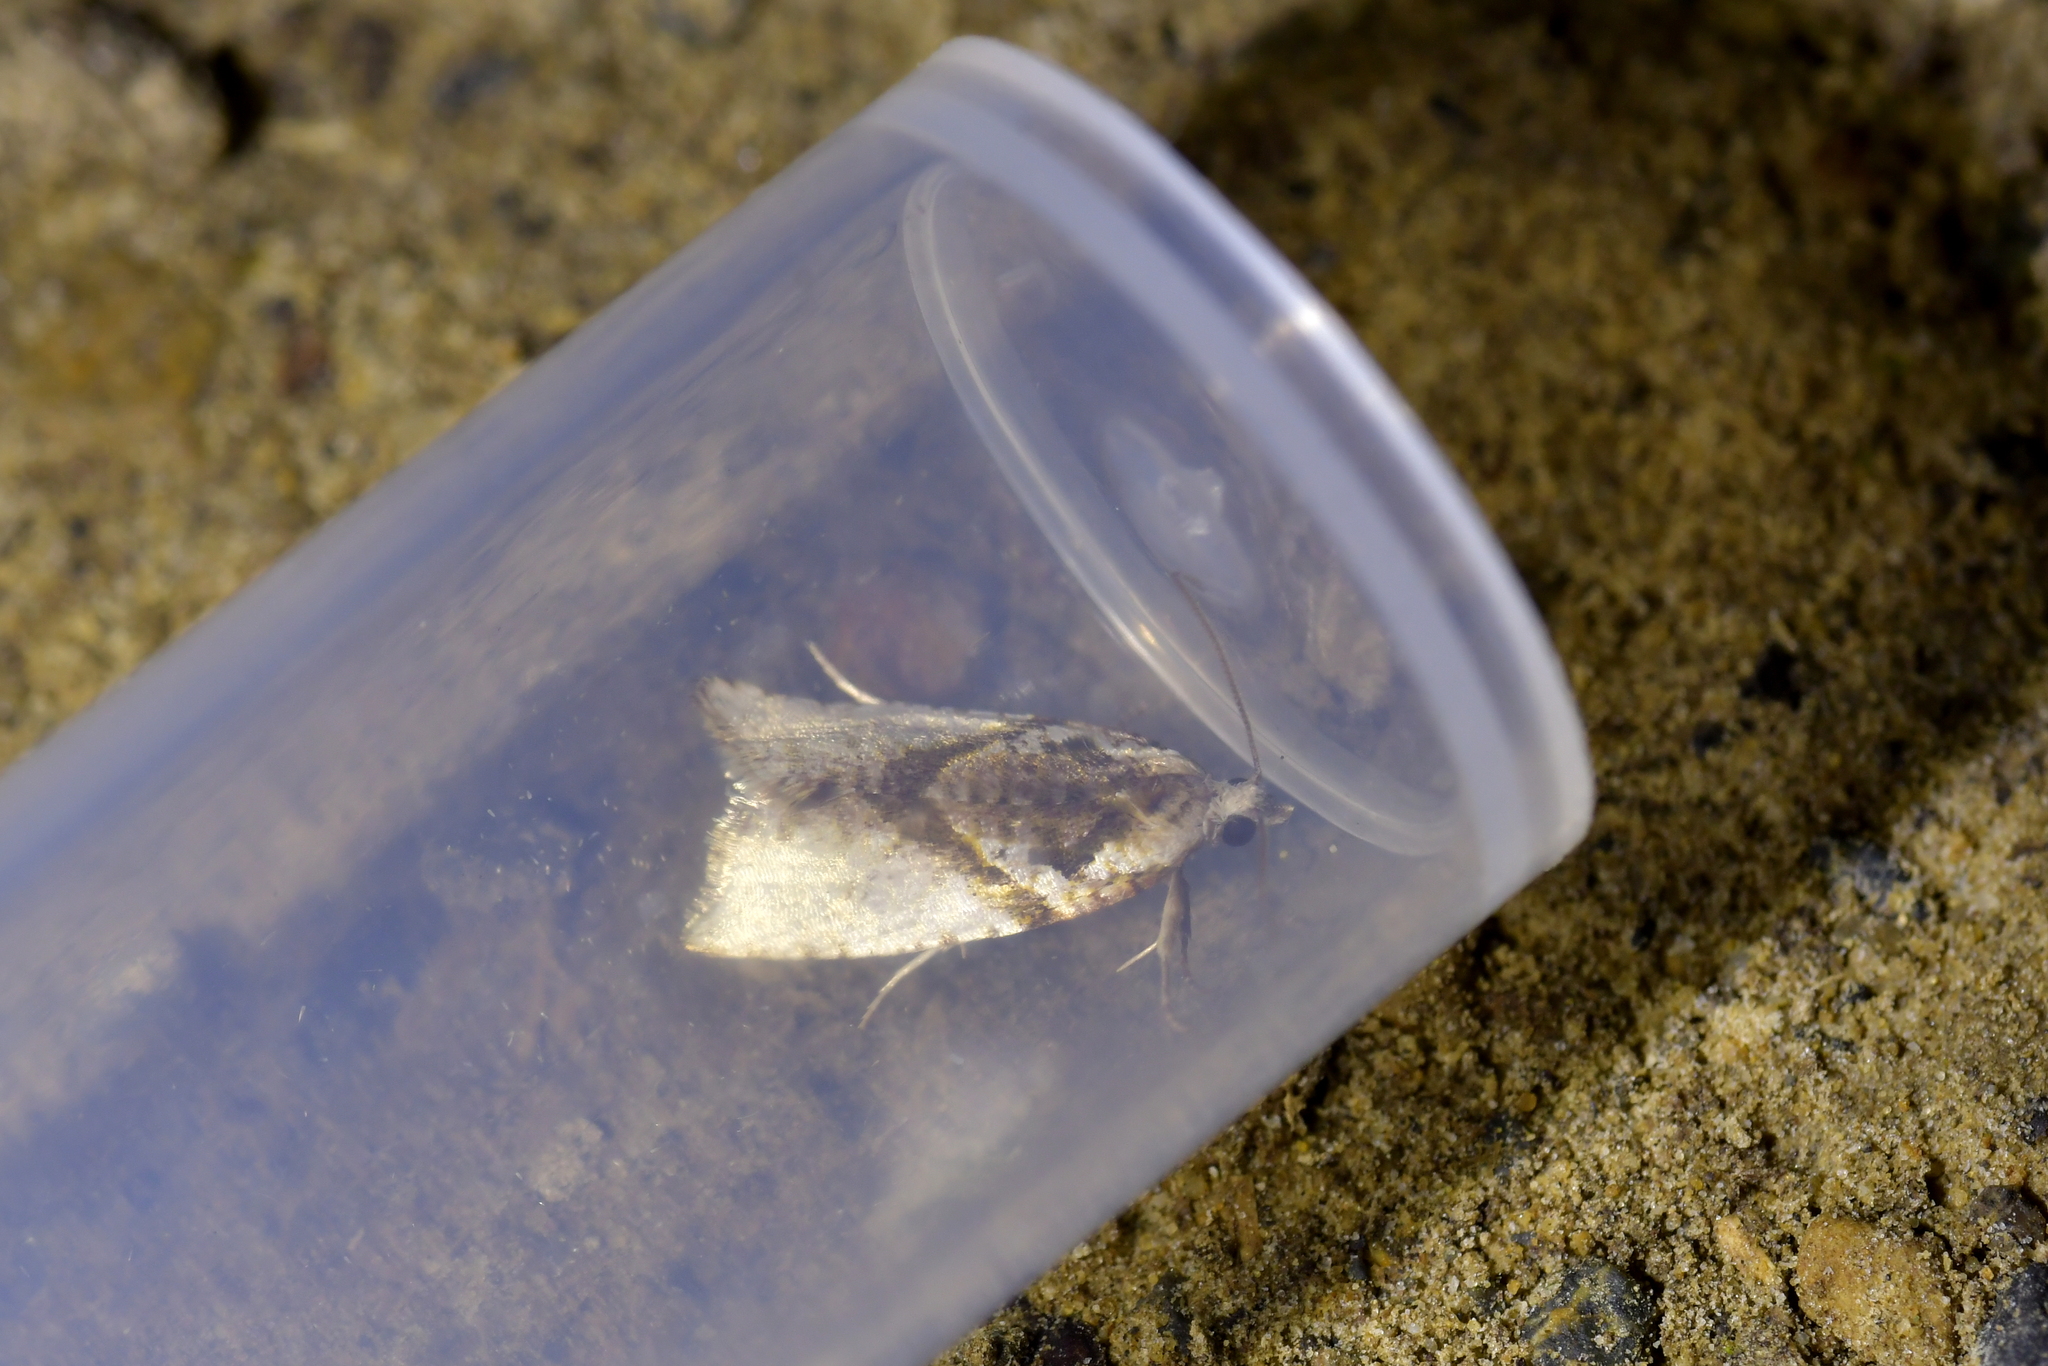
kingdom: Animalia
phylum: Arthropoda
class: Insecta
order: Lepidoptera
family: Tortricidae
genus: Isotenes
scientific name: Isotenes miserana
